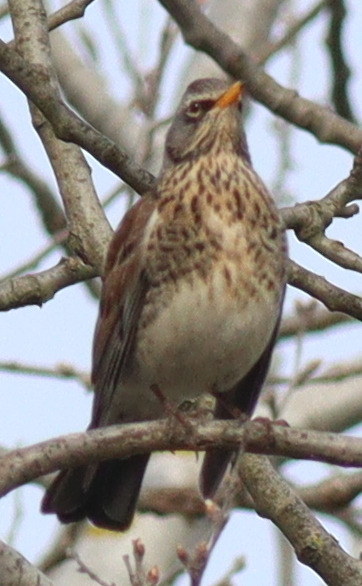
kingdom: Animalia
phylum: Chordata
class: Aves
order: Passeriformes
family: Turdidae
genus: Turdus
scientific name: Turdus pilaris
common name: Fieldfare
